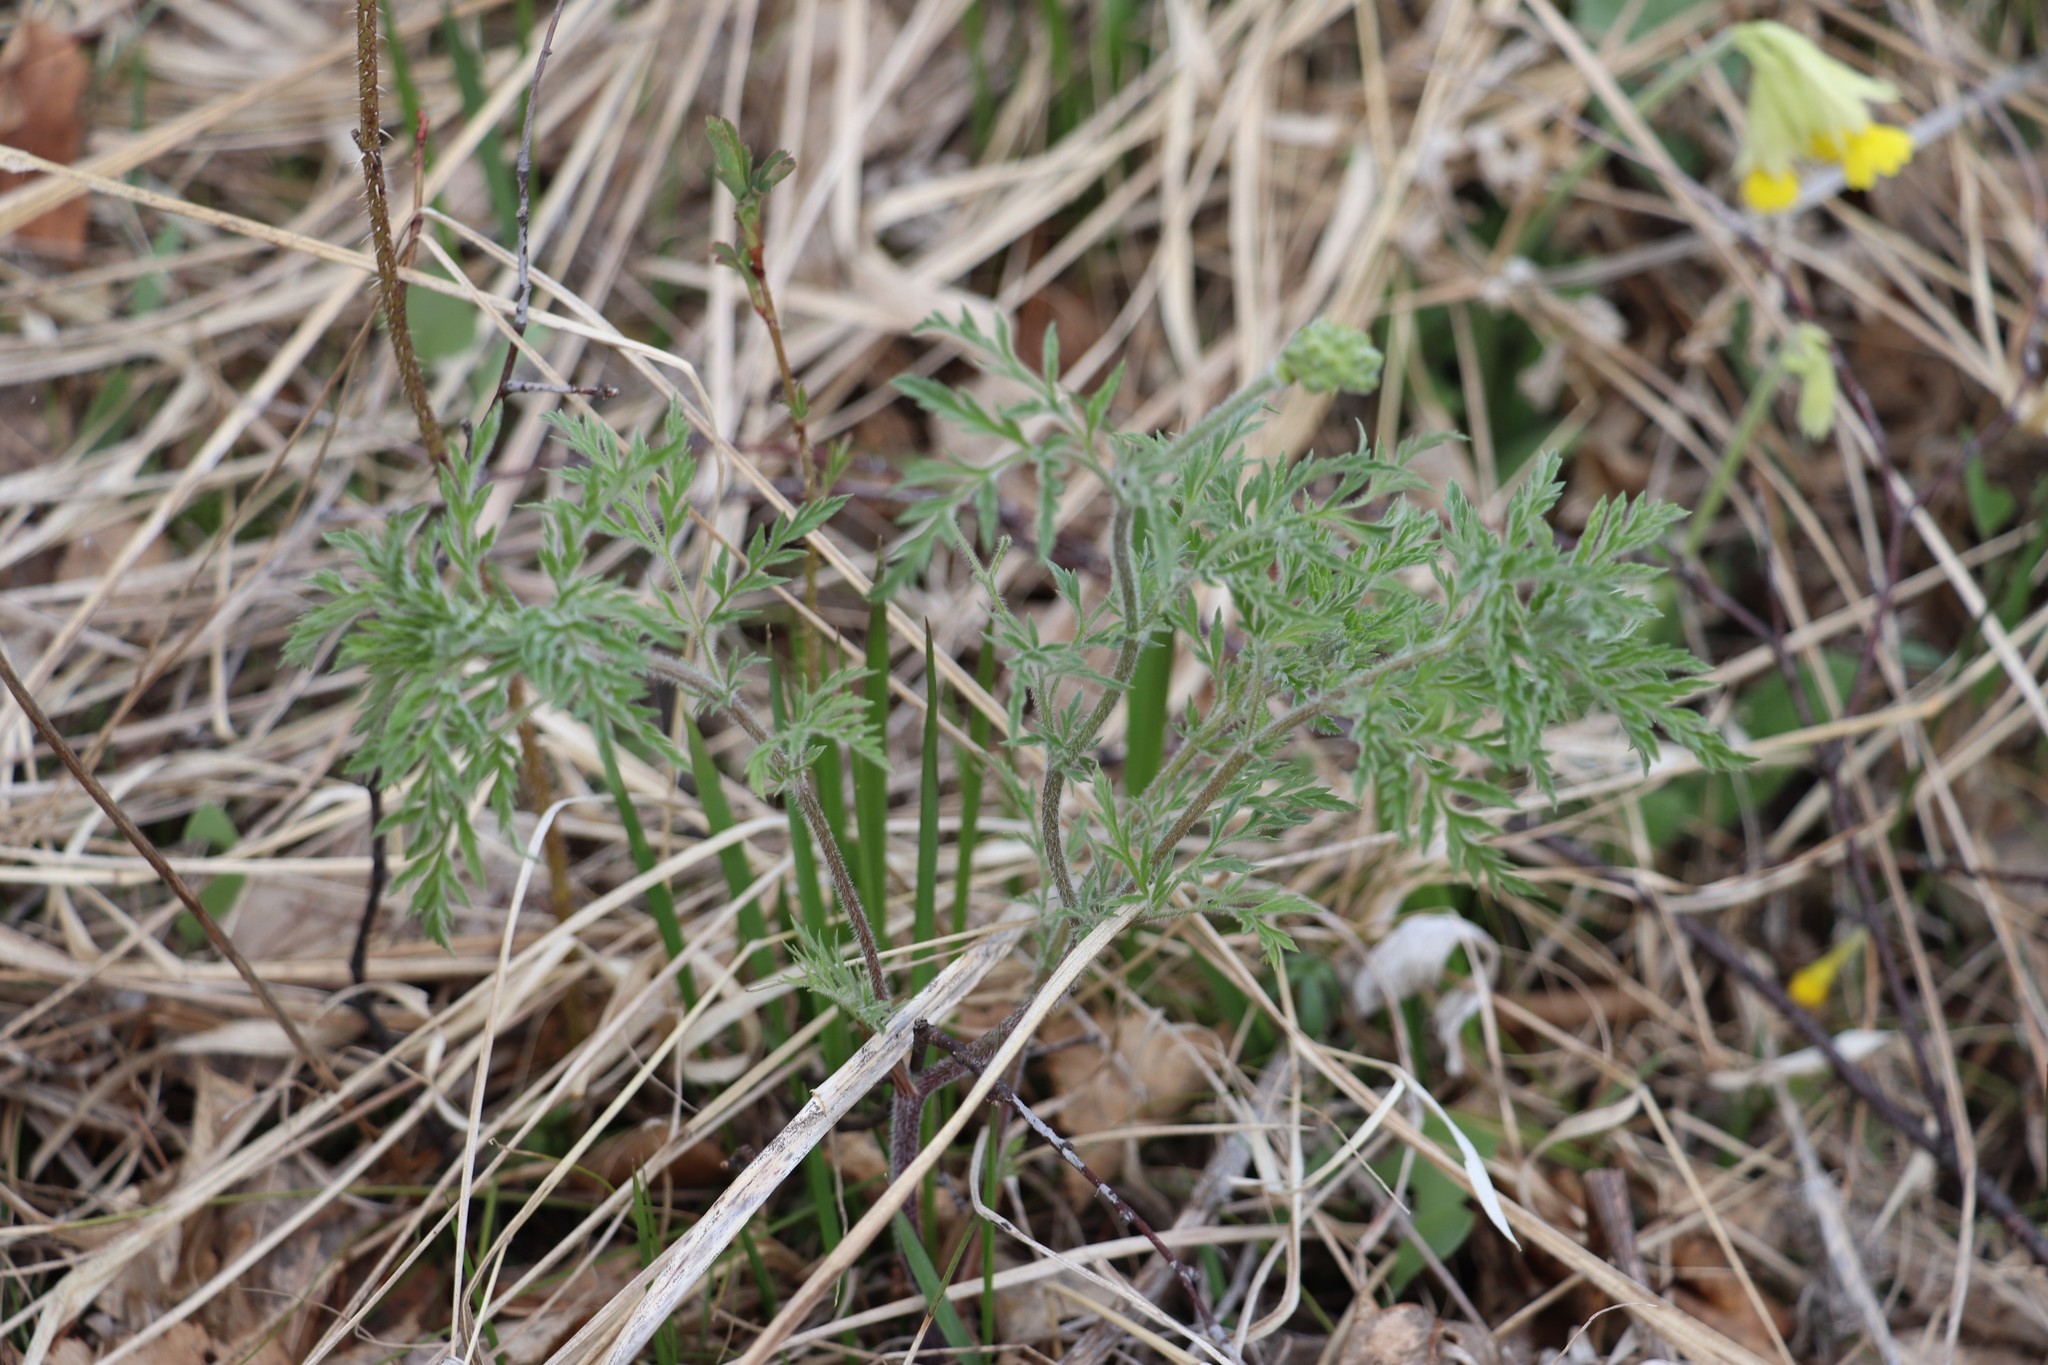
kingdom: Plantae
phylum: Tracheophyta
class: Magnoliopsida
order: Ranunculales
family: Ranunculaceae
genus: Adonis
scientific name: Adonis villosa
